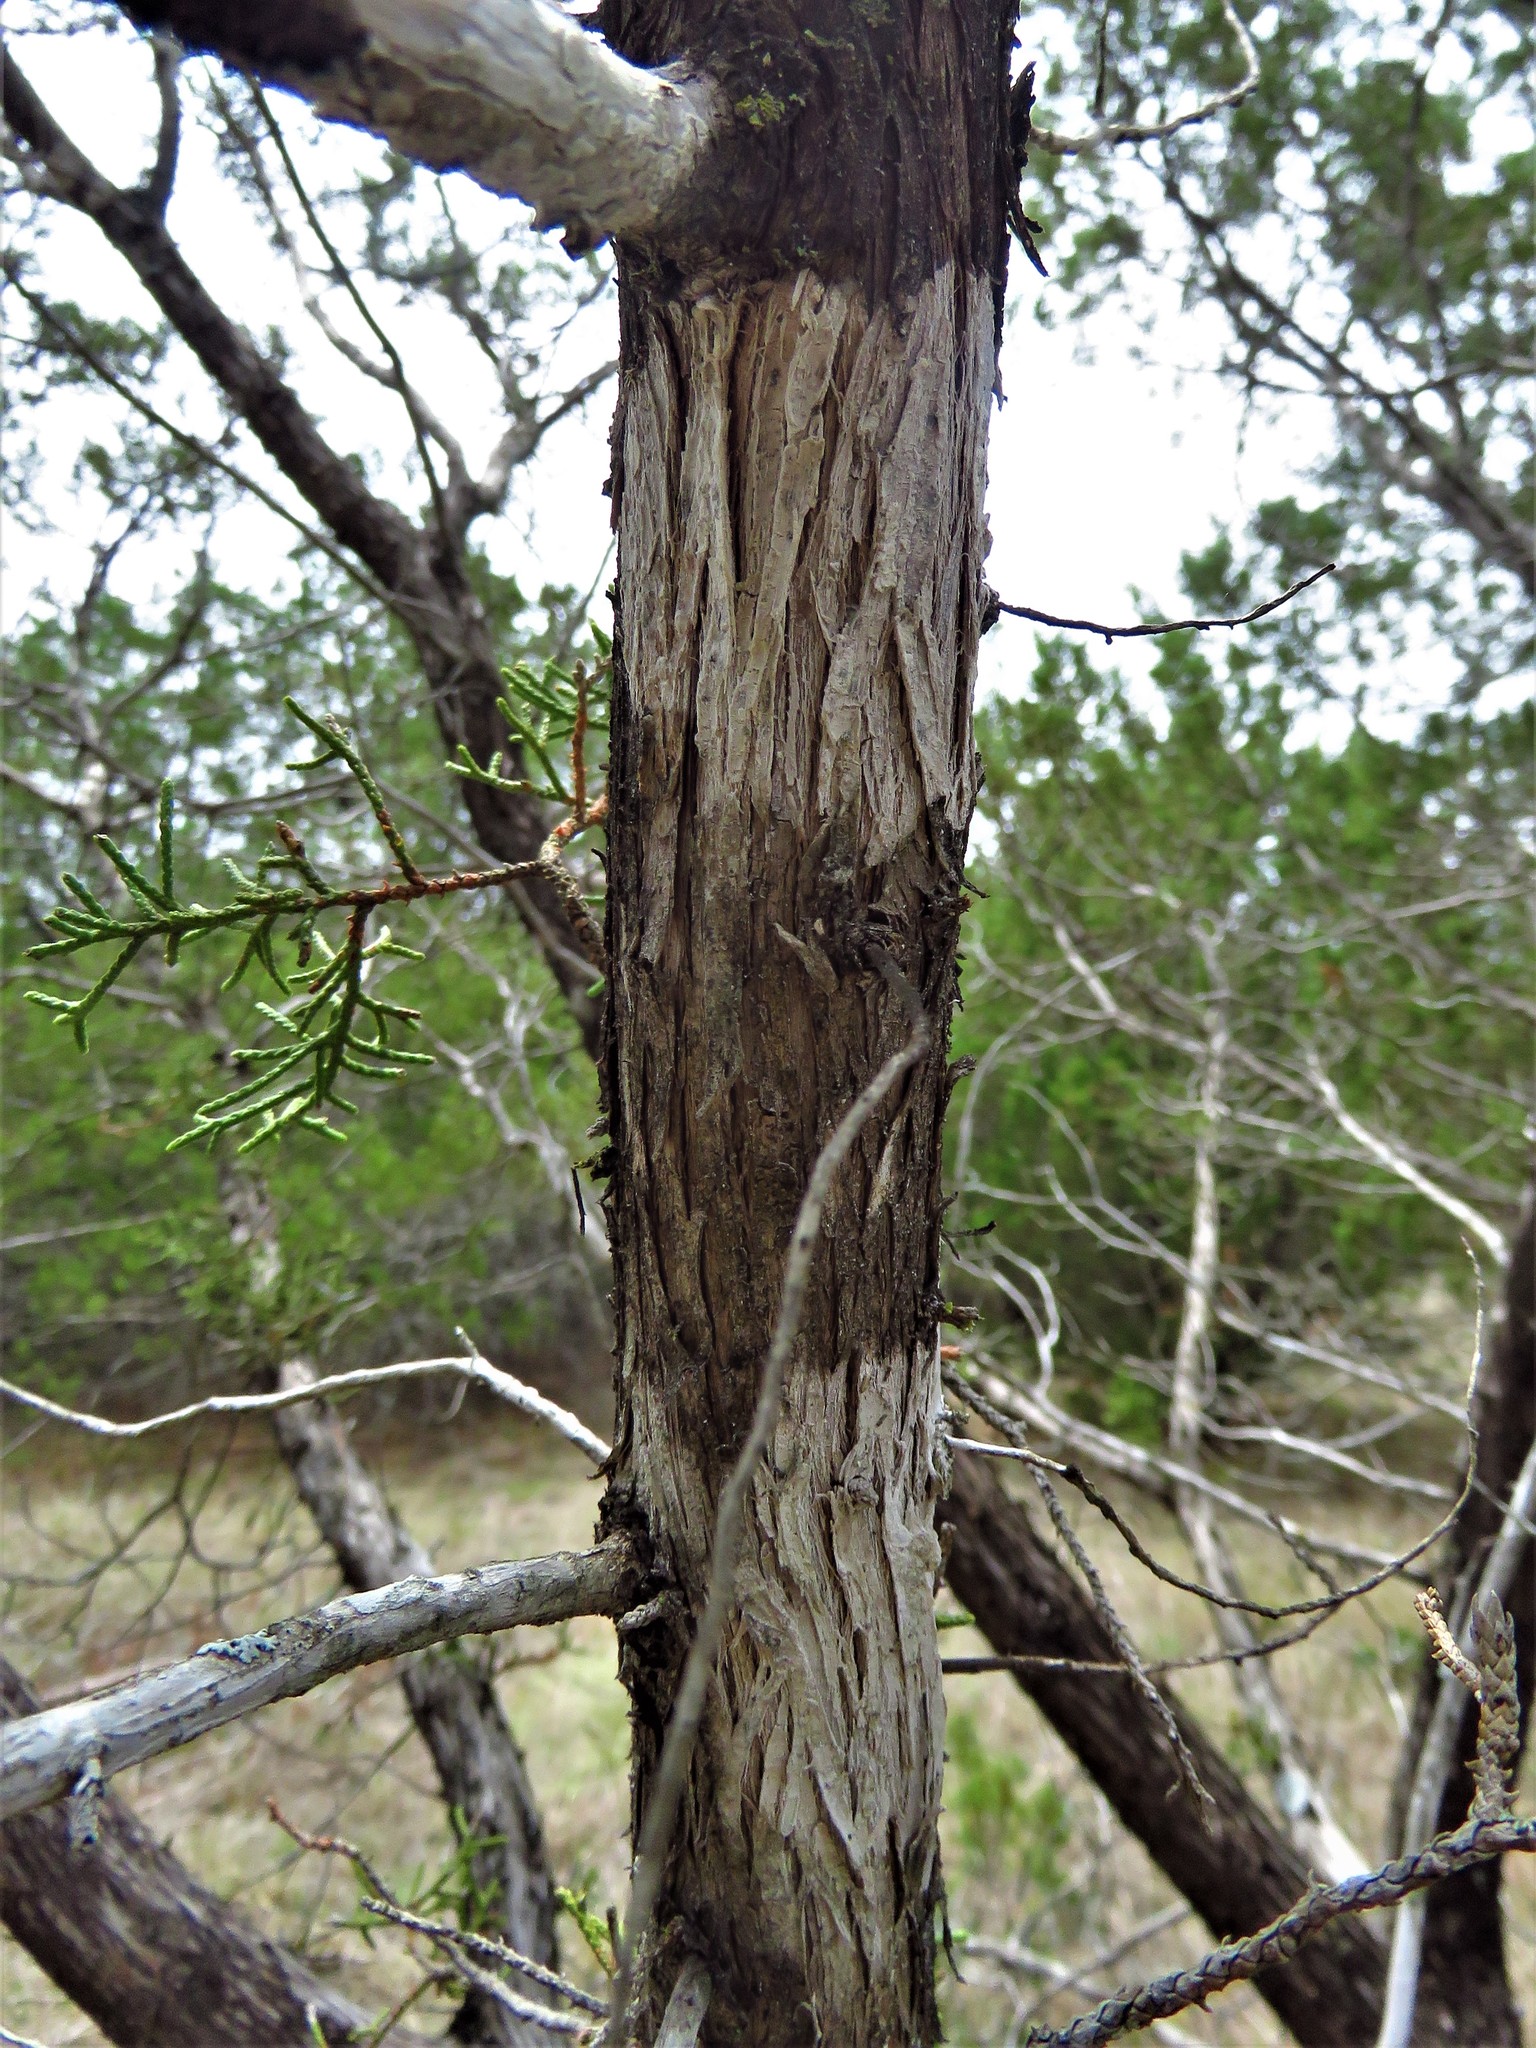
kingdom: Fungi
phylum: Ascomycota
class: Lecanoromycetes
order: Ostropales
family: Stictidaceae
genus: Robergea
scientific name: Robergea
